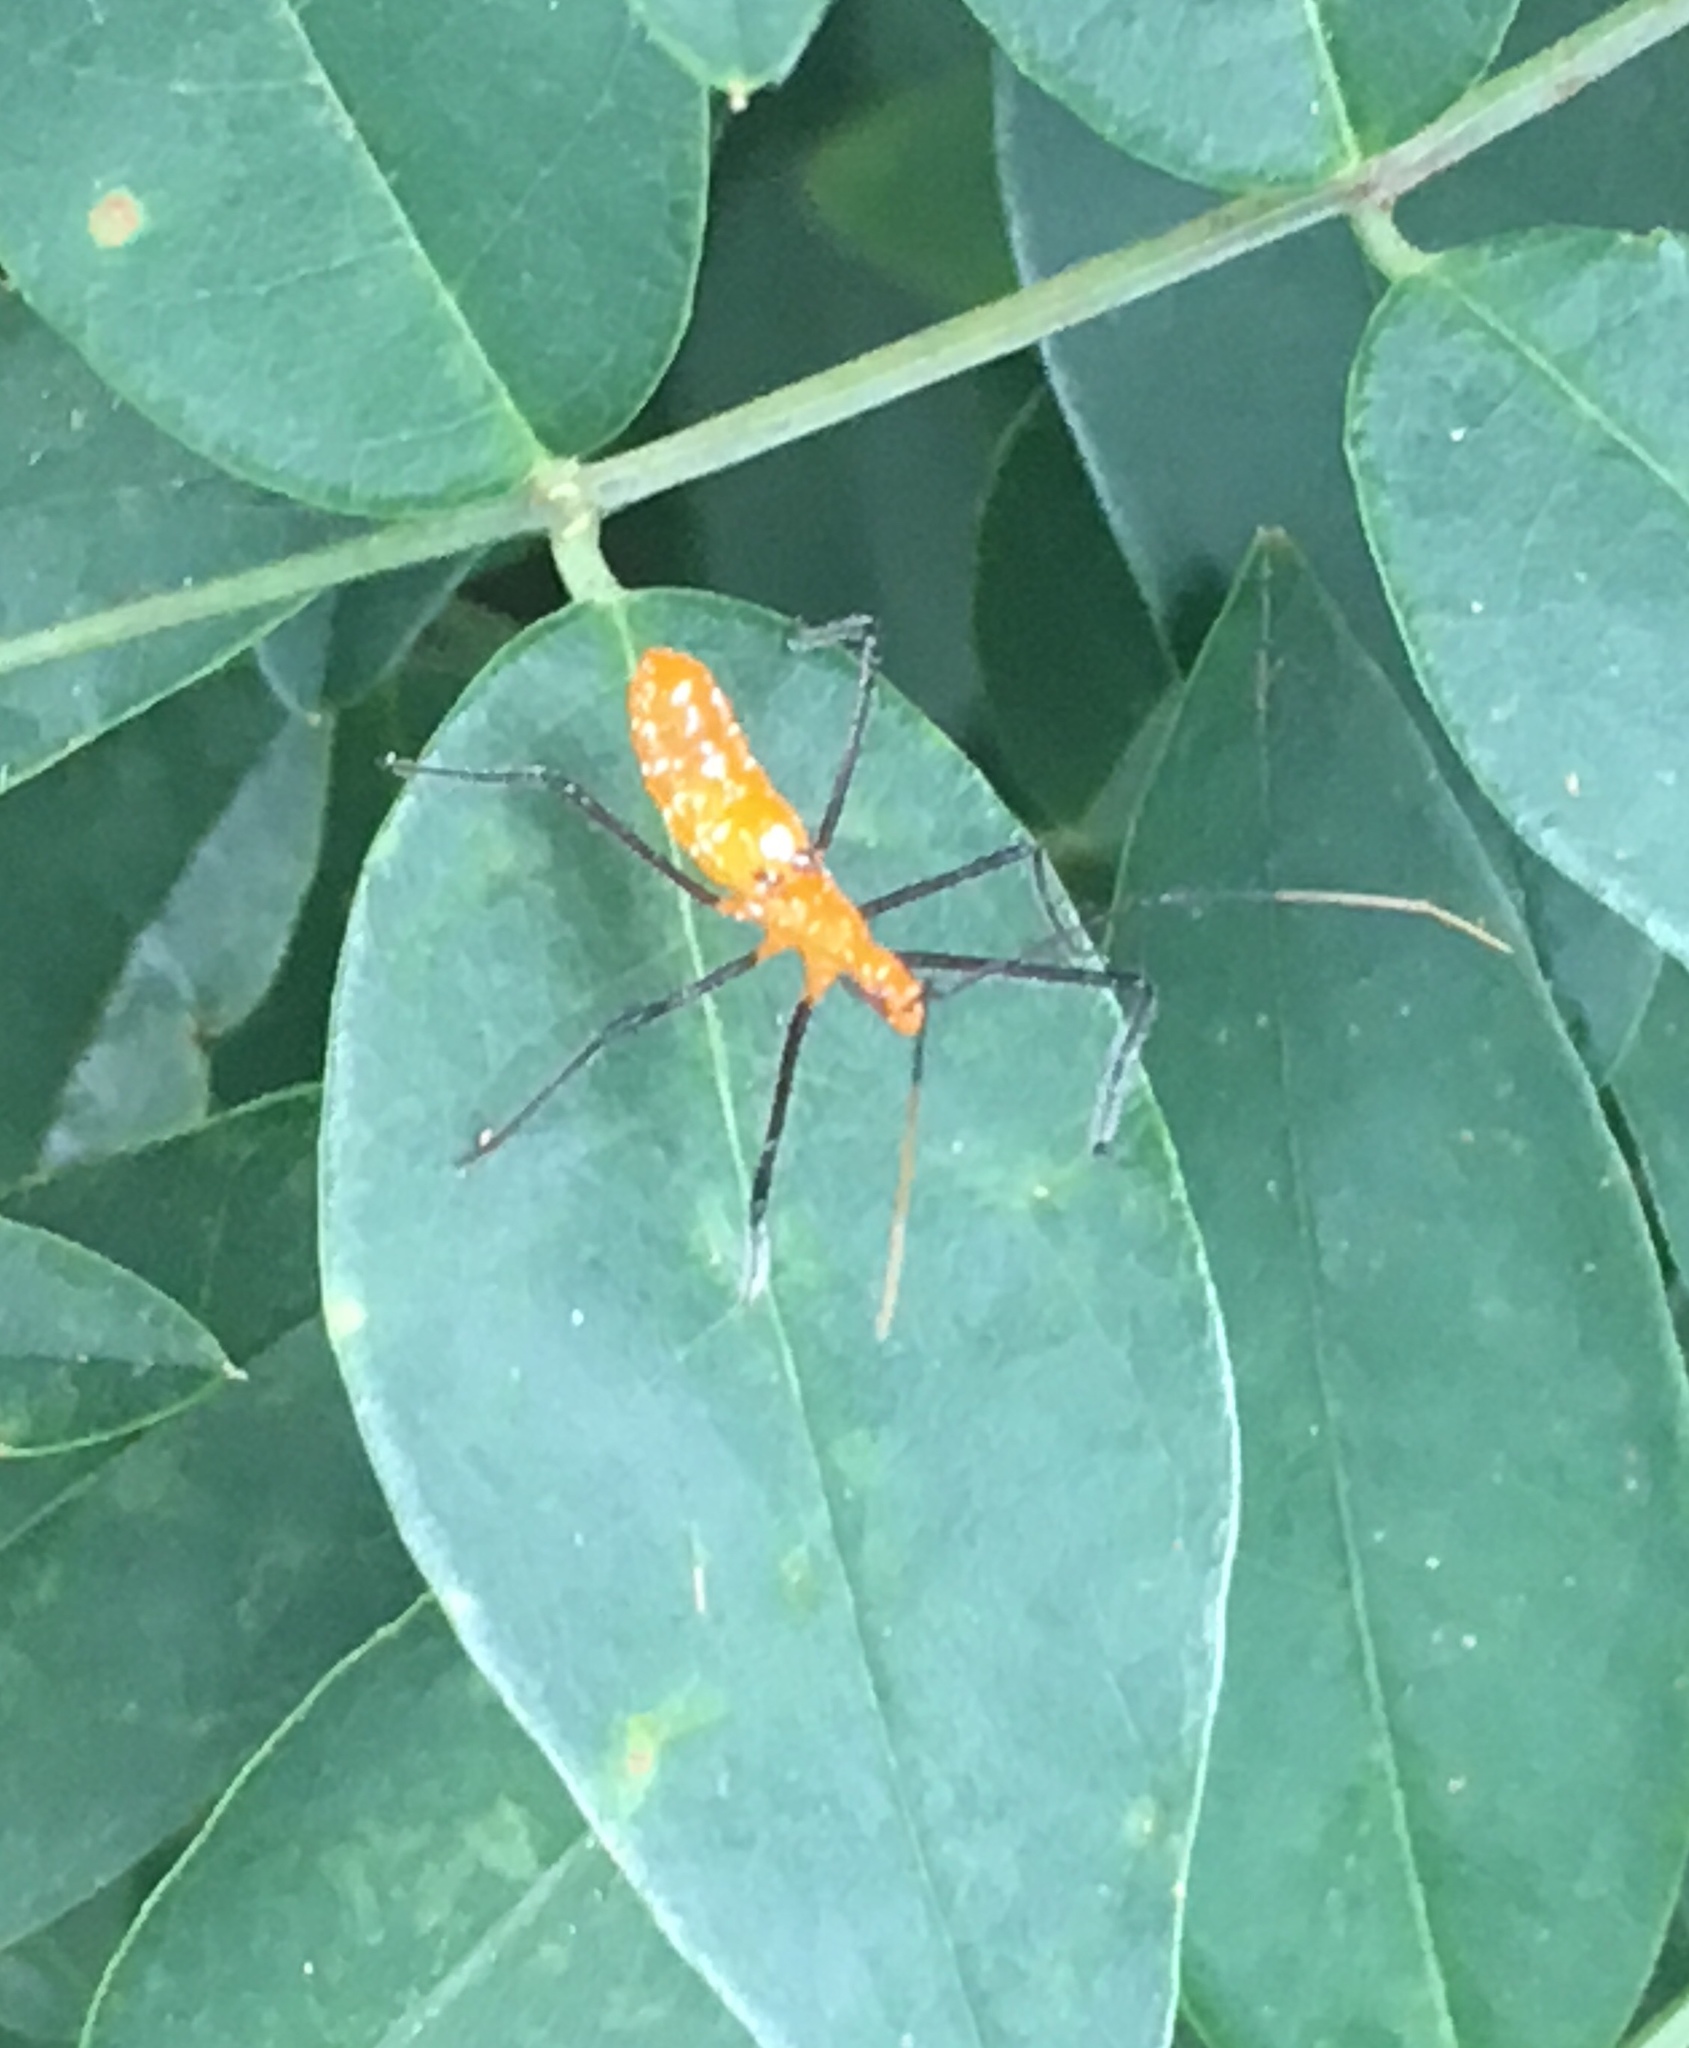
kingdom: Animalia
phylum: Arthropoda
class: Insecta
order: Hemiptera
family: Reduviidae
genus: Zelus
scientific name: Zelus longipes
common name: Milkweed assassin bug
